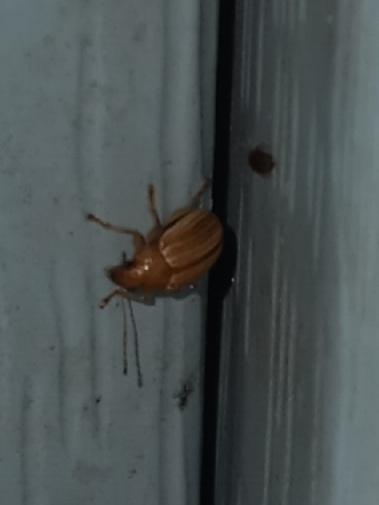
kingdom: Animalia
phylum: Arthropoda
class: Insecta
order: Coleoptera
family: Chrysomelidae
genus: Colaspis
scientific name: Colaspis brunnea
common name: Grape colaspis
